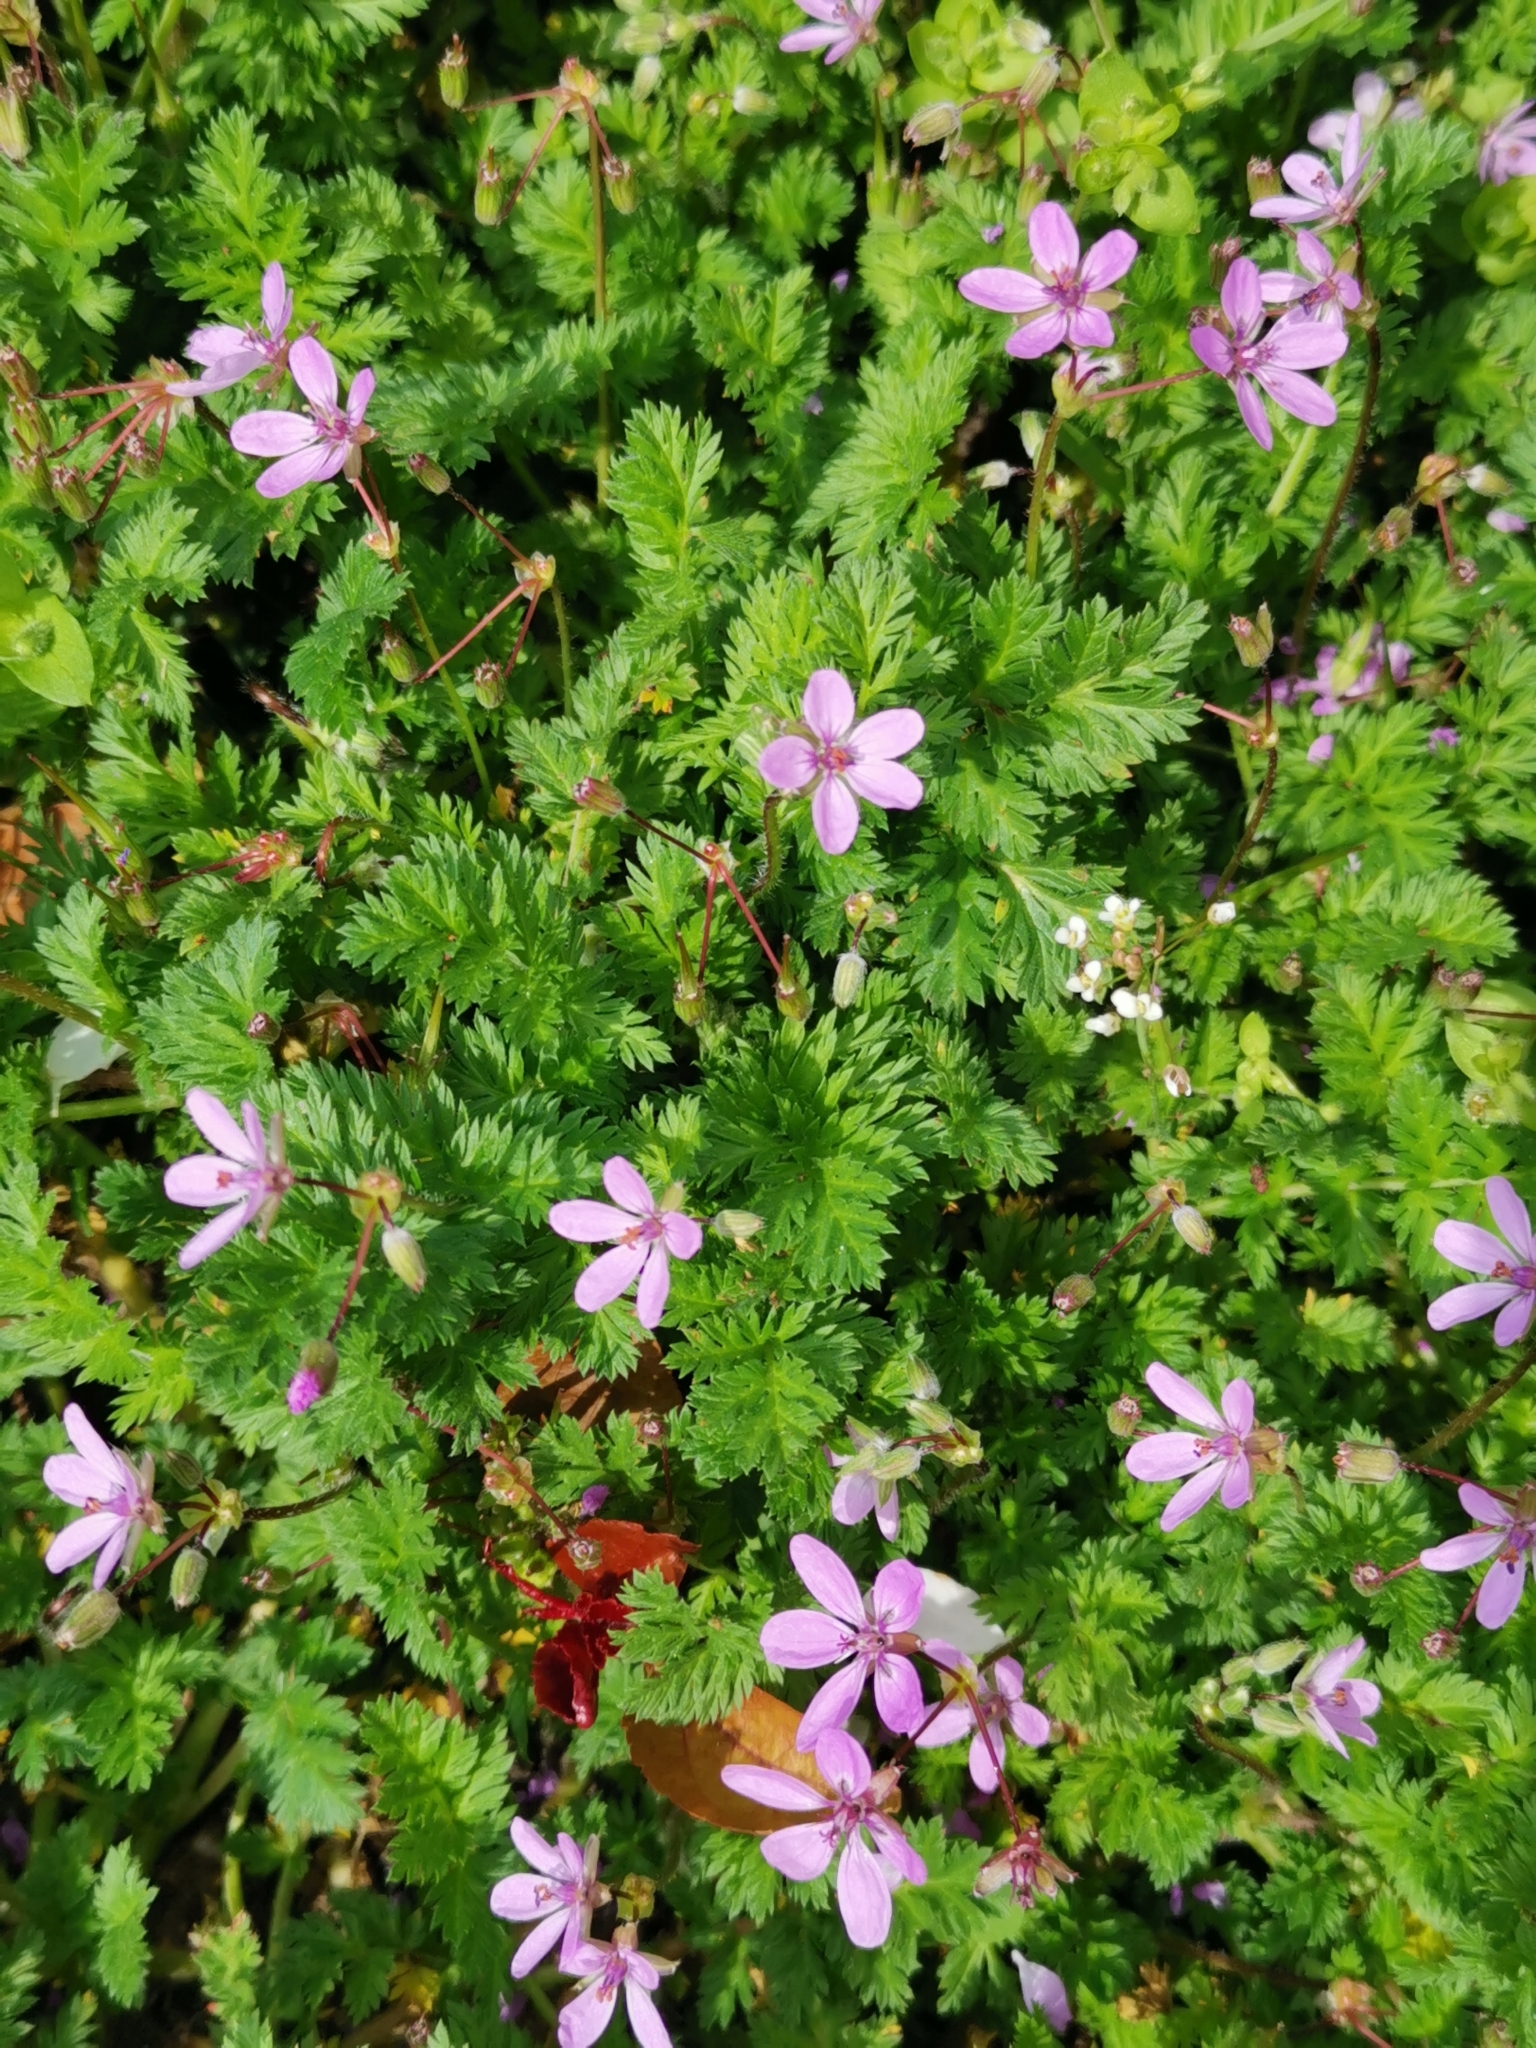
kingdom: Plantae
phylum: Tracheophyta
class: Magnoliopsida
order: Geraniales
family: Geraniaceae
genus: Erodium
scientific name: Erodium cicutarium
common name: Common stork's-bill
